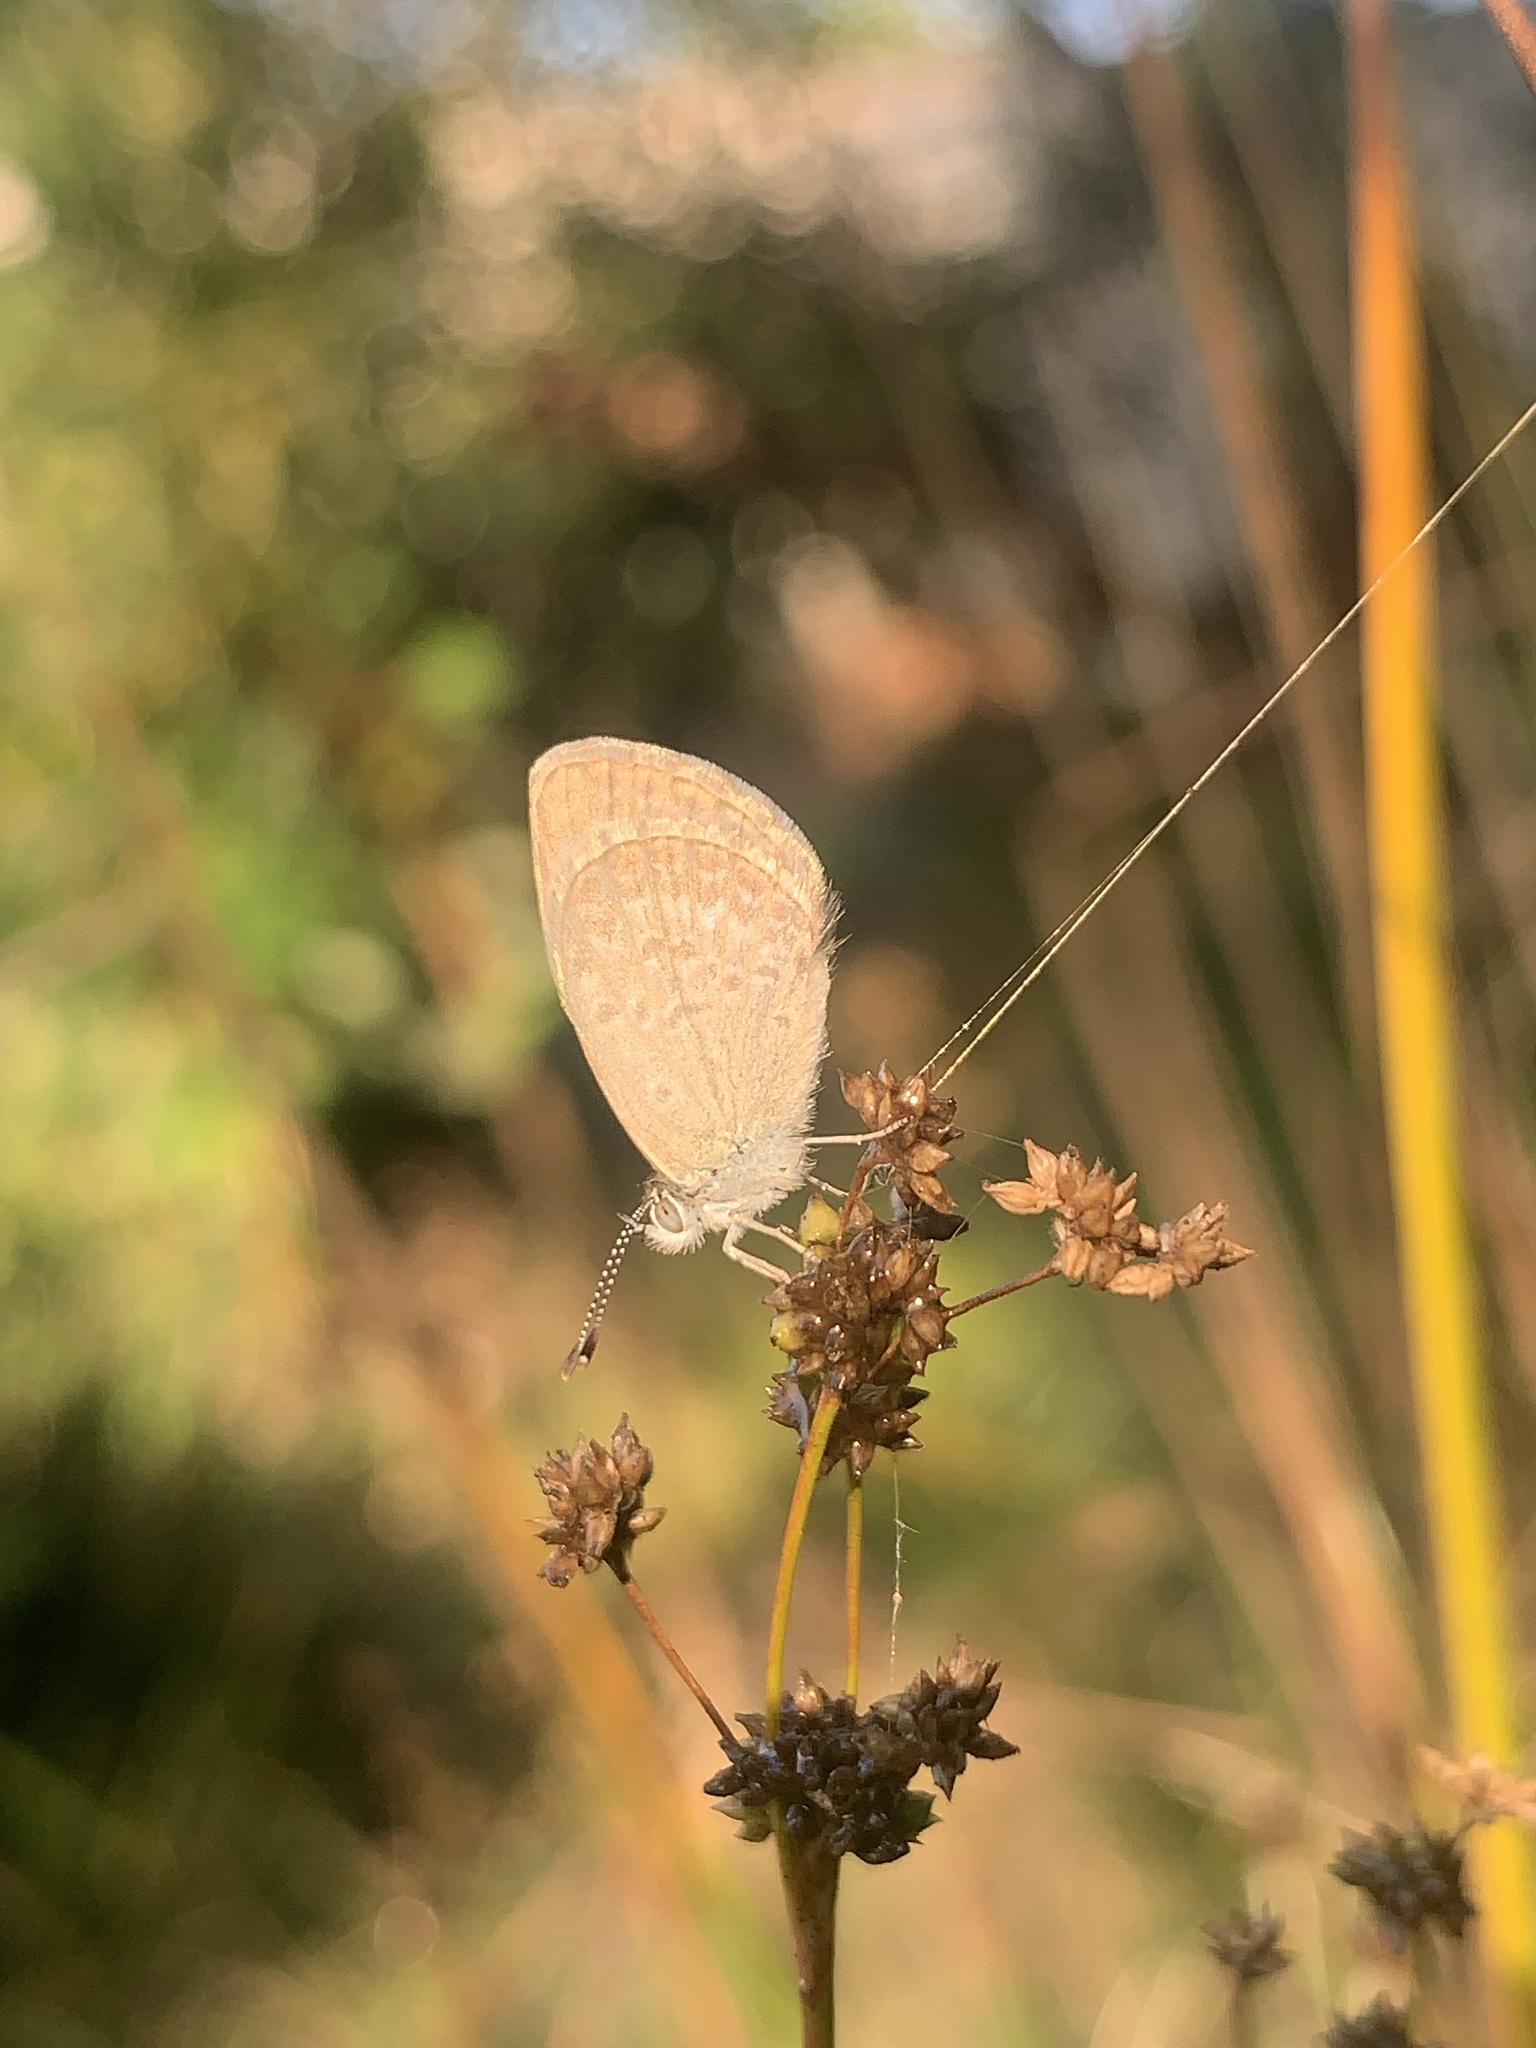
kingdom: Animalia
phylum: Arthropoda
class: Insecta
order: Lepidoptera
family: Lycaenidae
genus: Zizina
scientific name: Zizina otis
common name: Lesser grass blue
